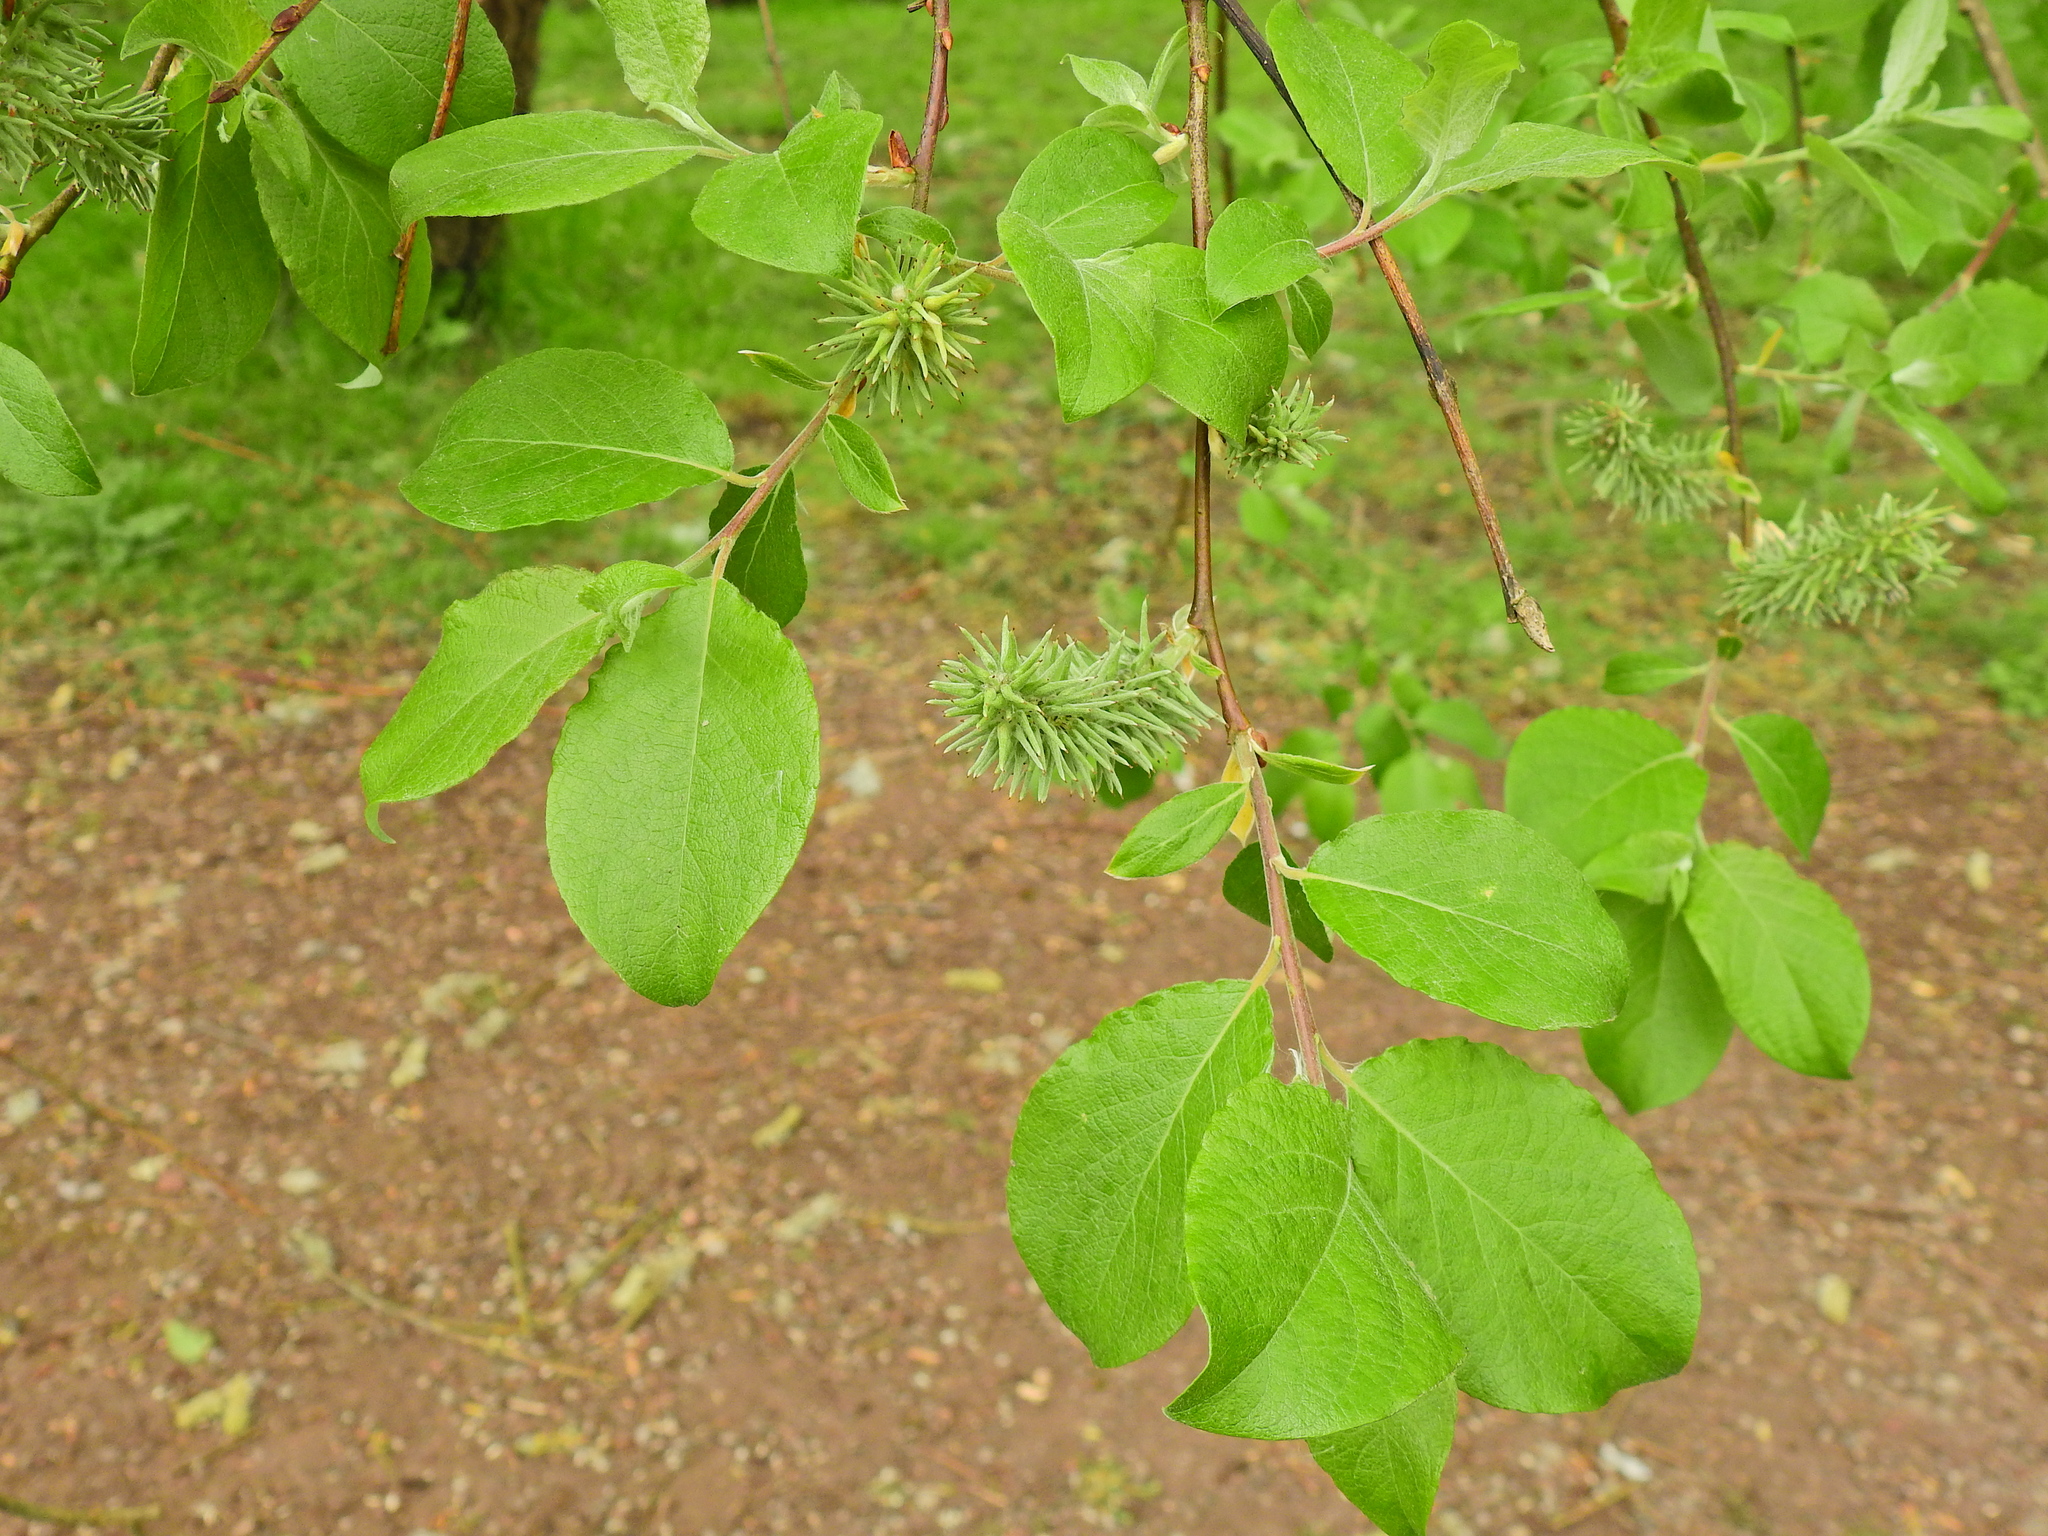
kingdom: Plantae
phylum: Tracheophyta
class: Magnoliopsida
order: Malpighiales
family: Salicaceae
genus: Salix
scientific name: Salix caprea
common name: Goat willow
